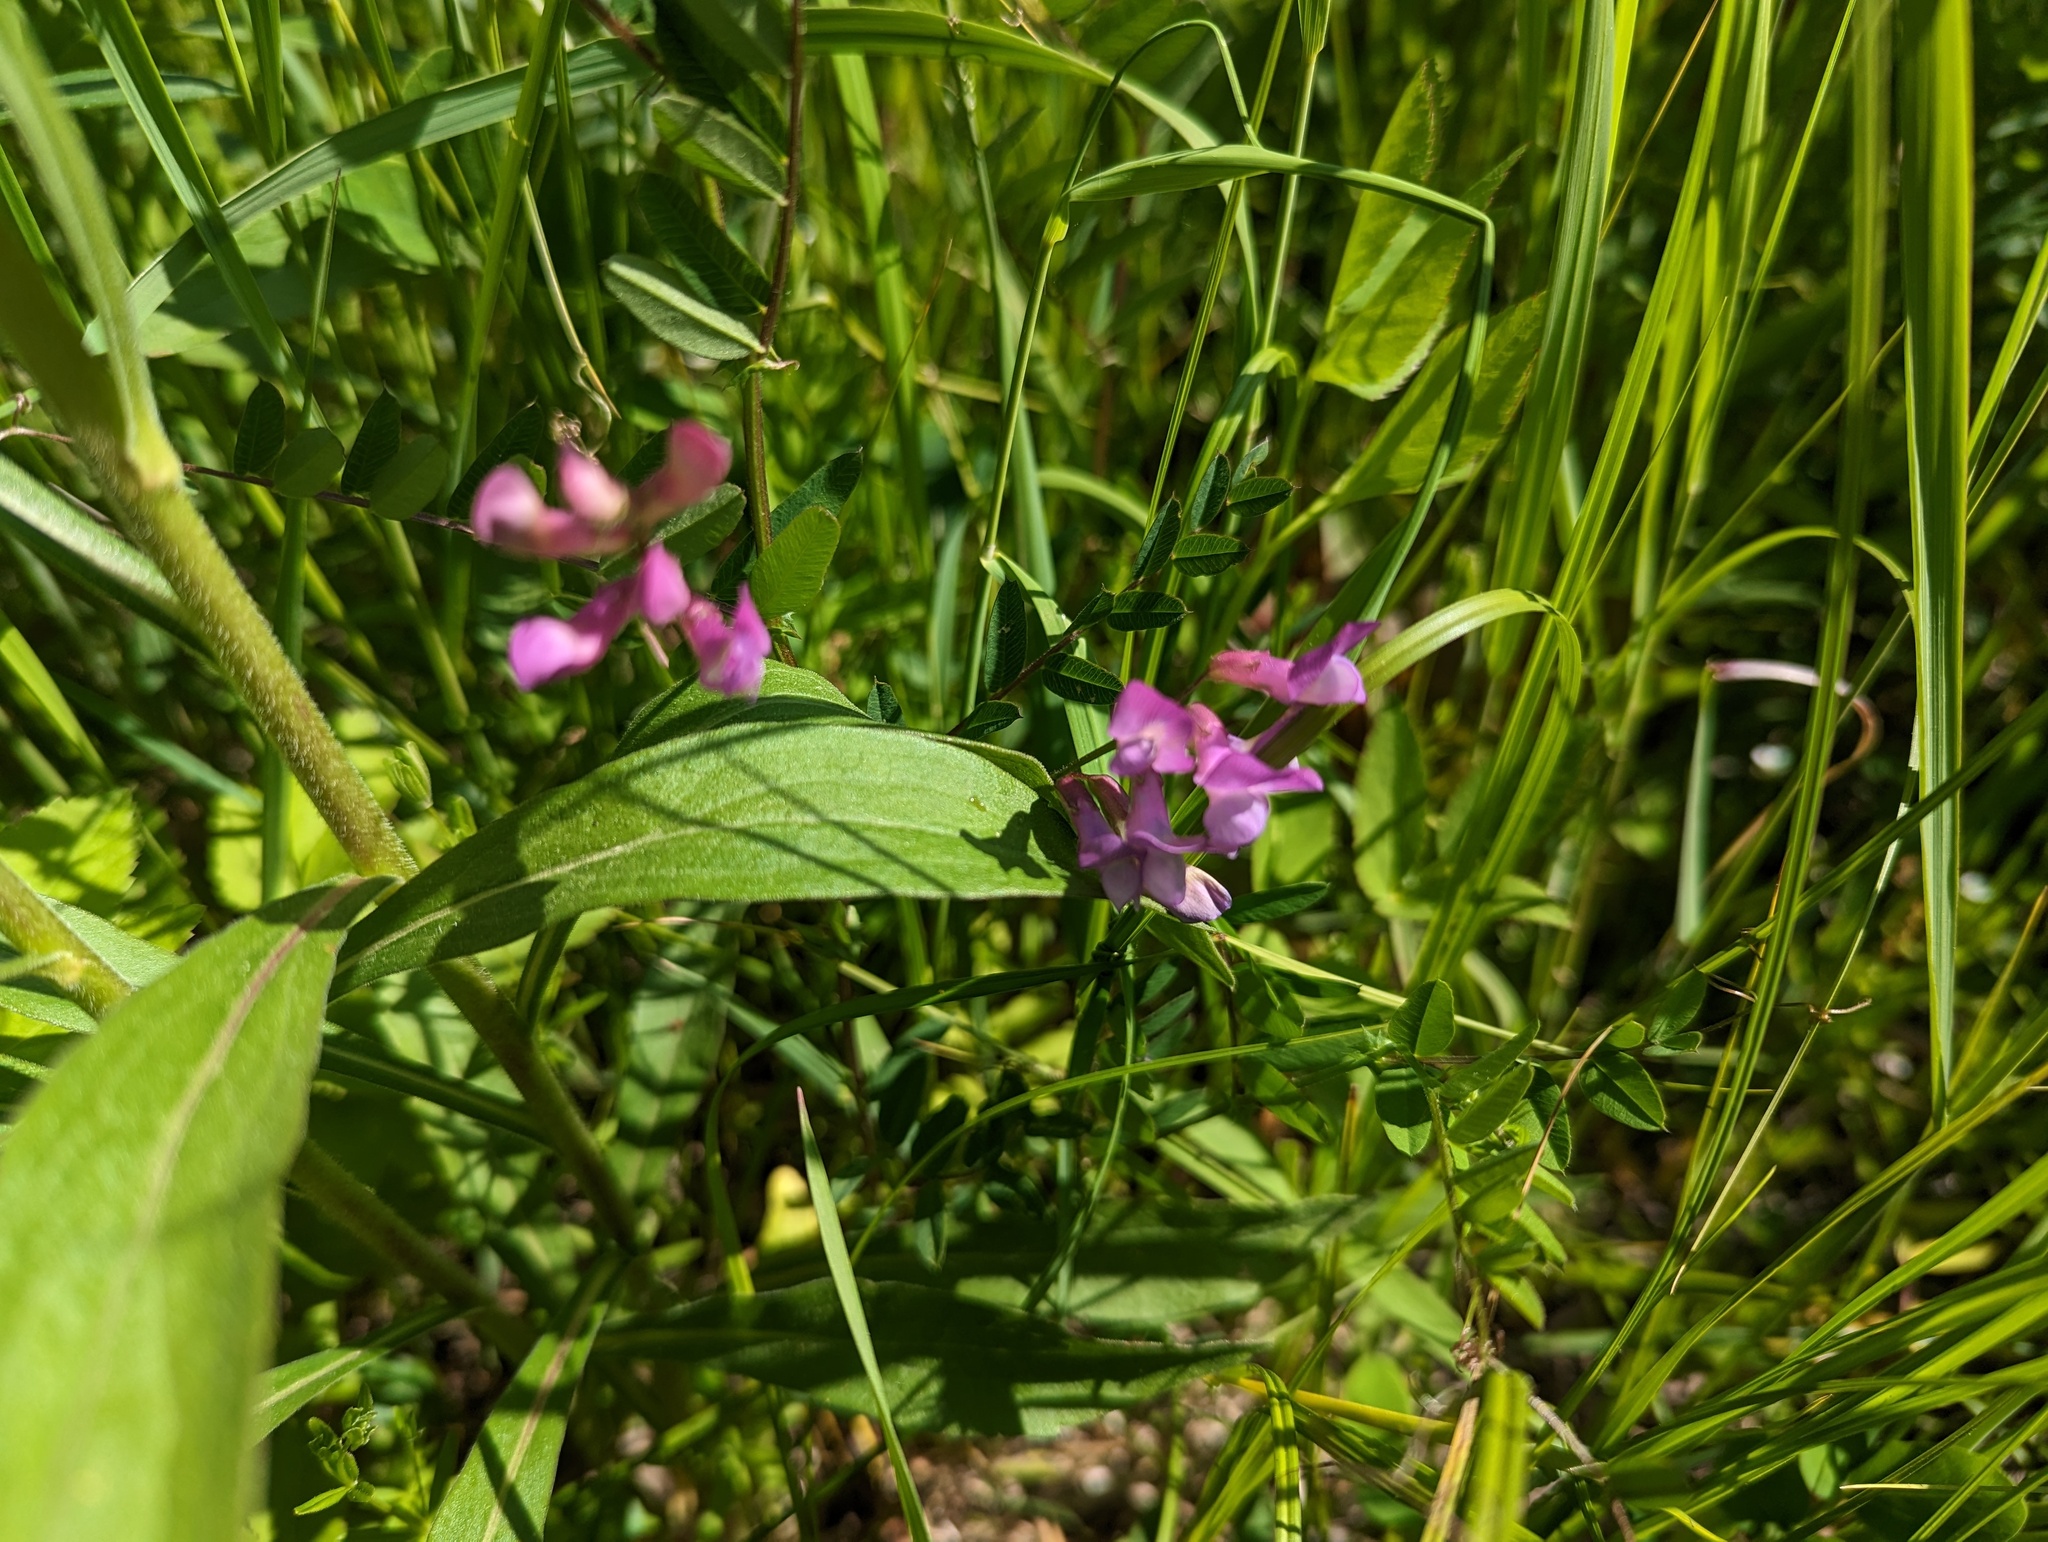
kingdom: Plantae
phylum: Tracheophyta
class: Magnoliopsida
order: Fabales
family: Fabaceae
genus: Vicia
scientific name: Vicia americana
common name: American vetch
